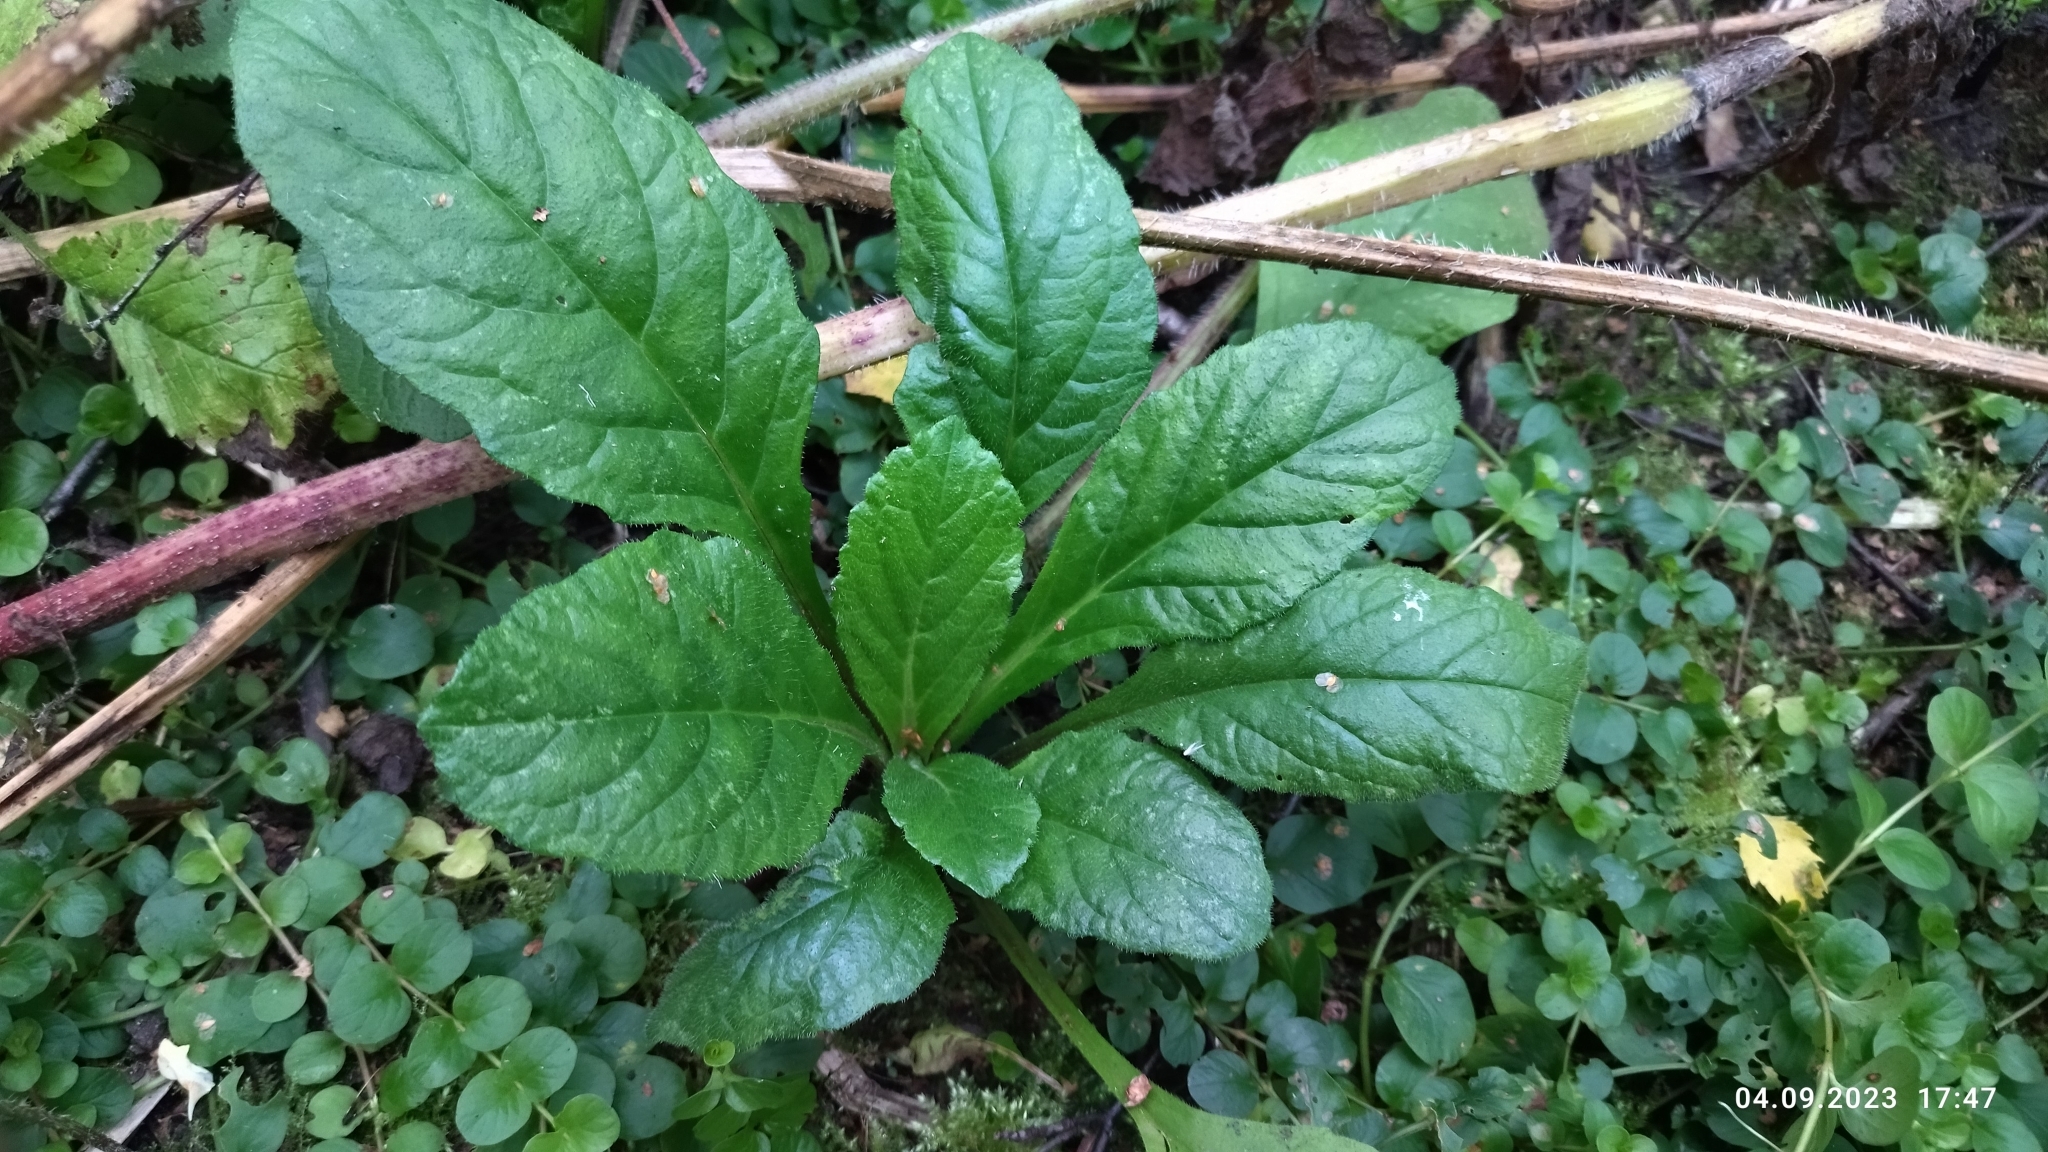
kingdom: Plantae
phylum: Tracheophyta
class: Magnoliopsida
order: Lamiales
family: Lamiaceae
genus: Ajuga
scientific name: Ajuga reptans
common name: Bugle
